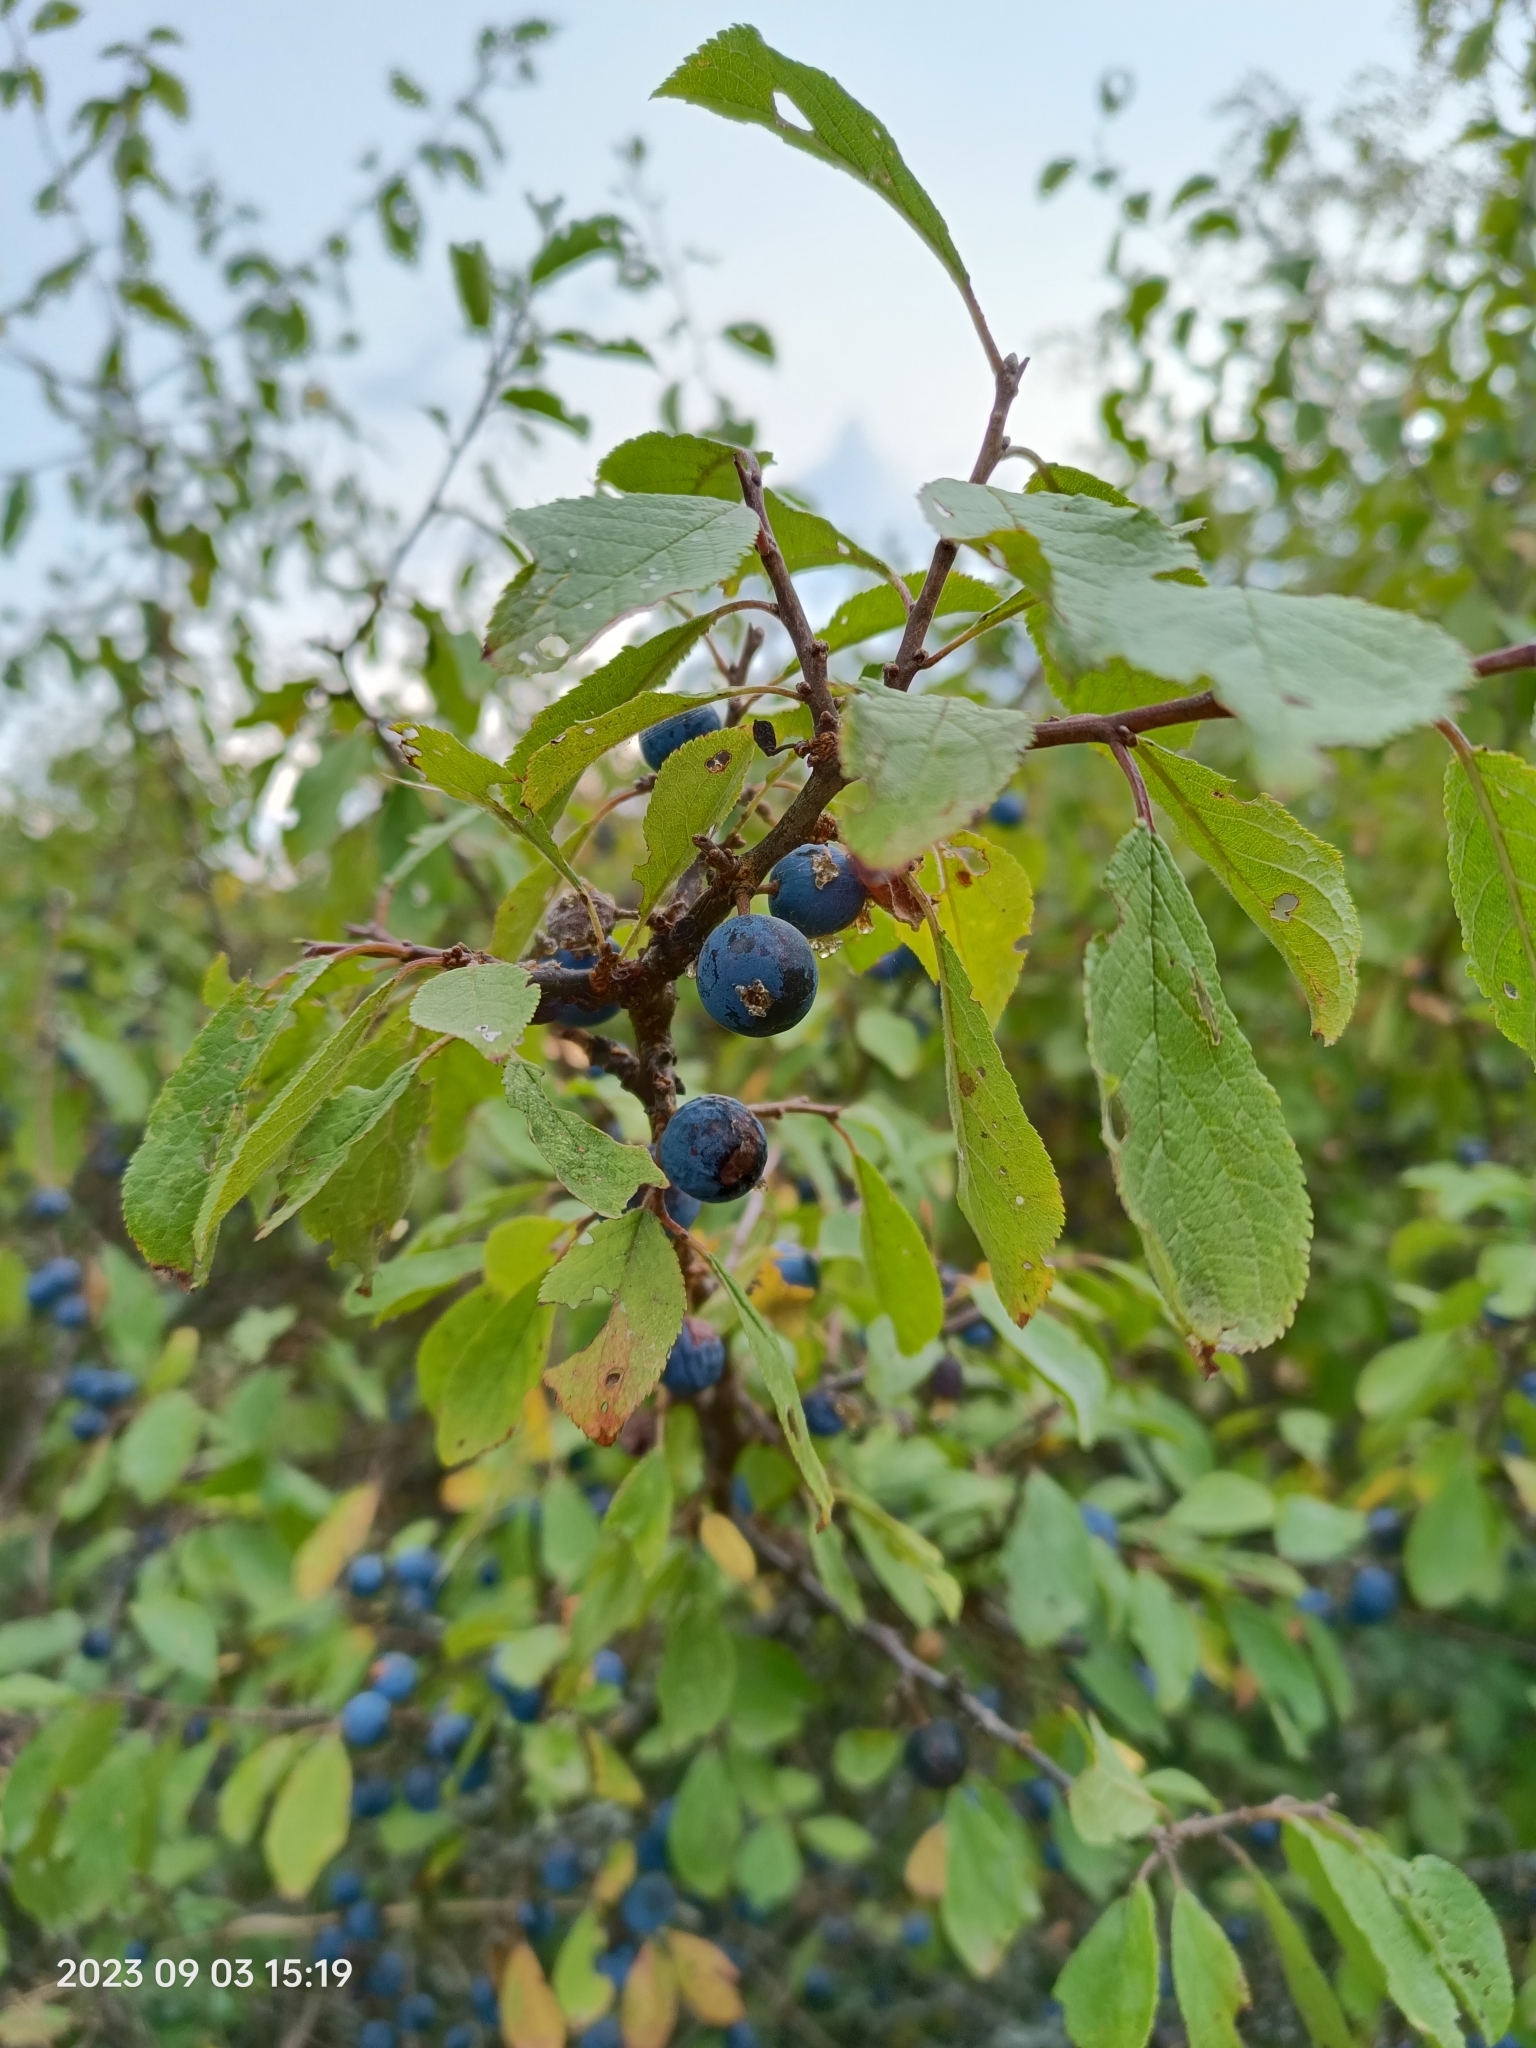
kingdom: Plantae
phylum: Tracheophyta
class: Magnoliopsida
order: Rosales
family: Rosaceae
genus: Prunus
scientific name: Prunus spinosa
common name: Blackthorn
